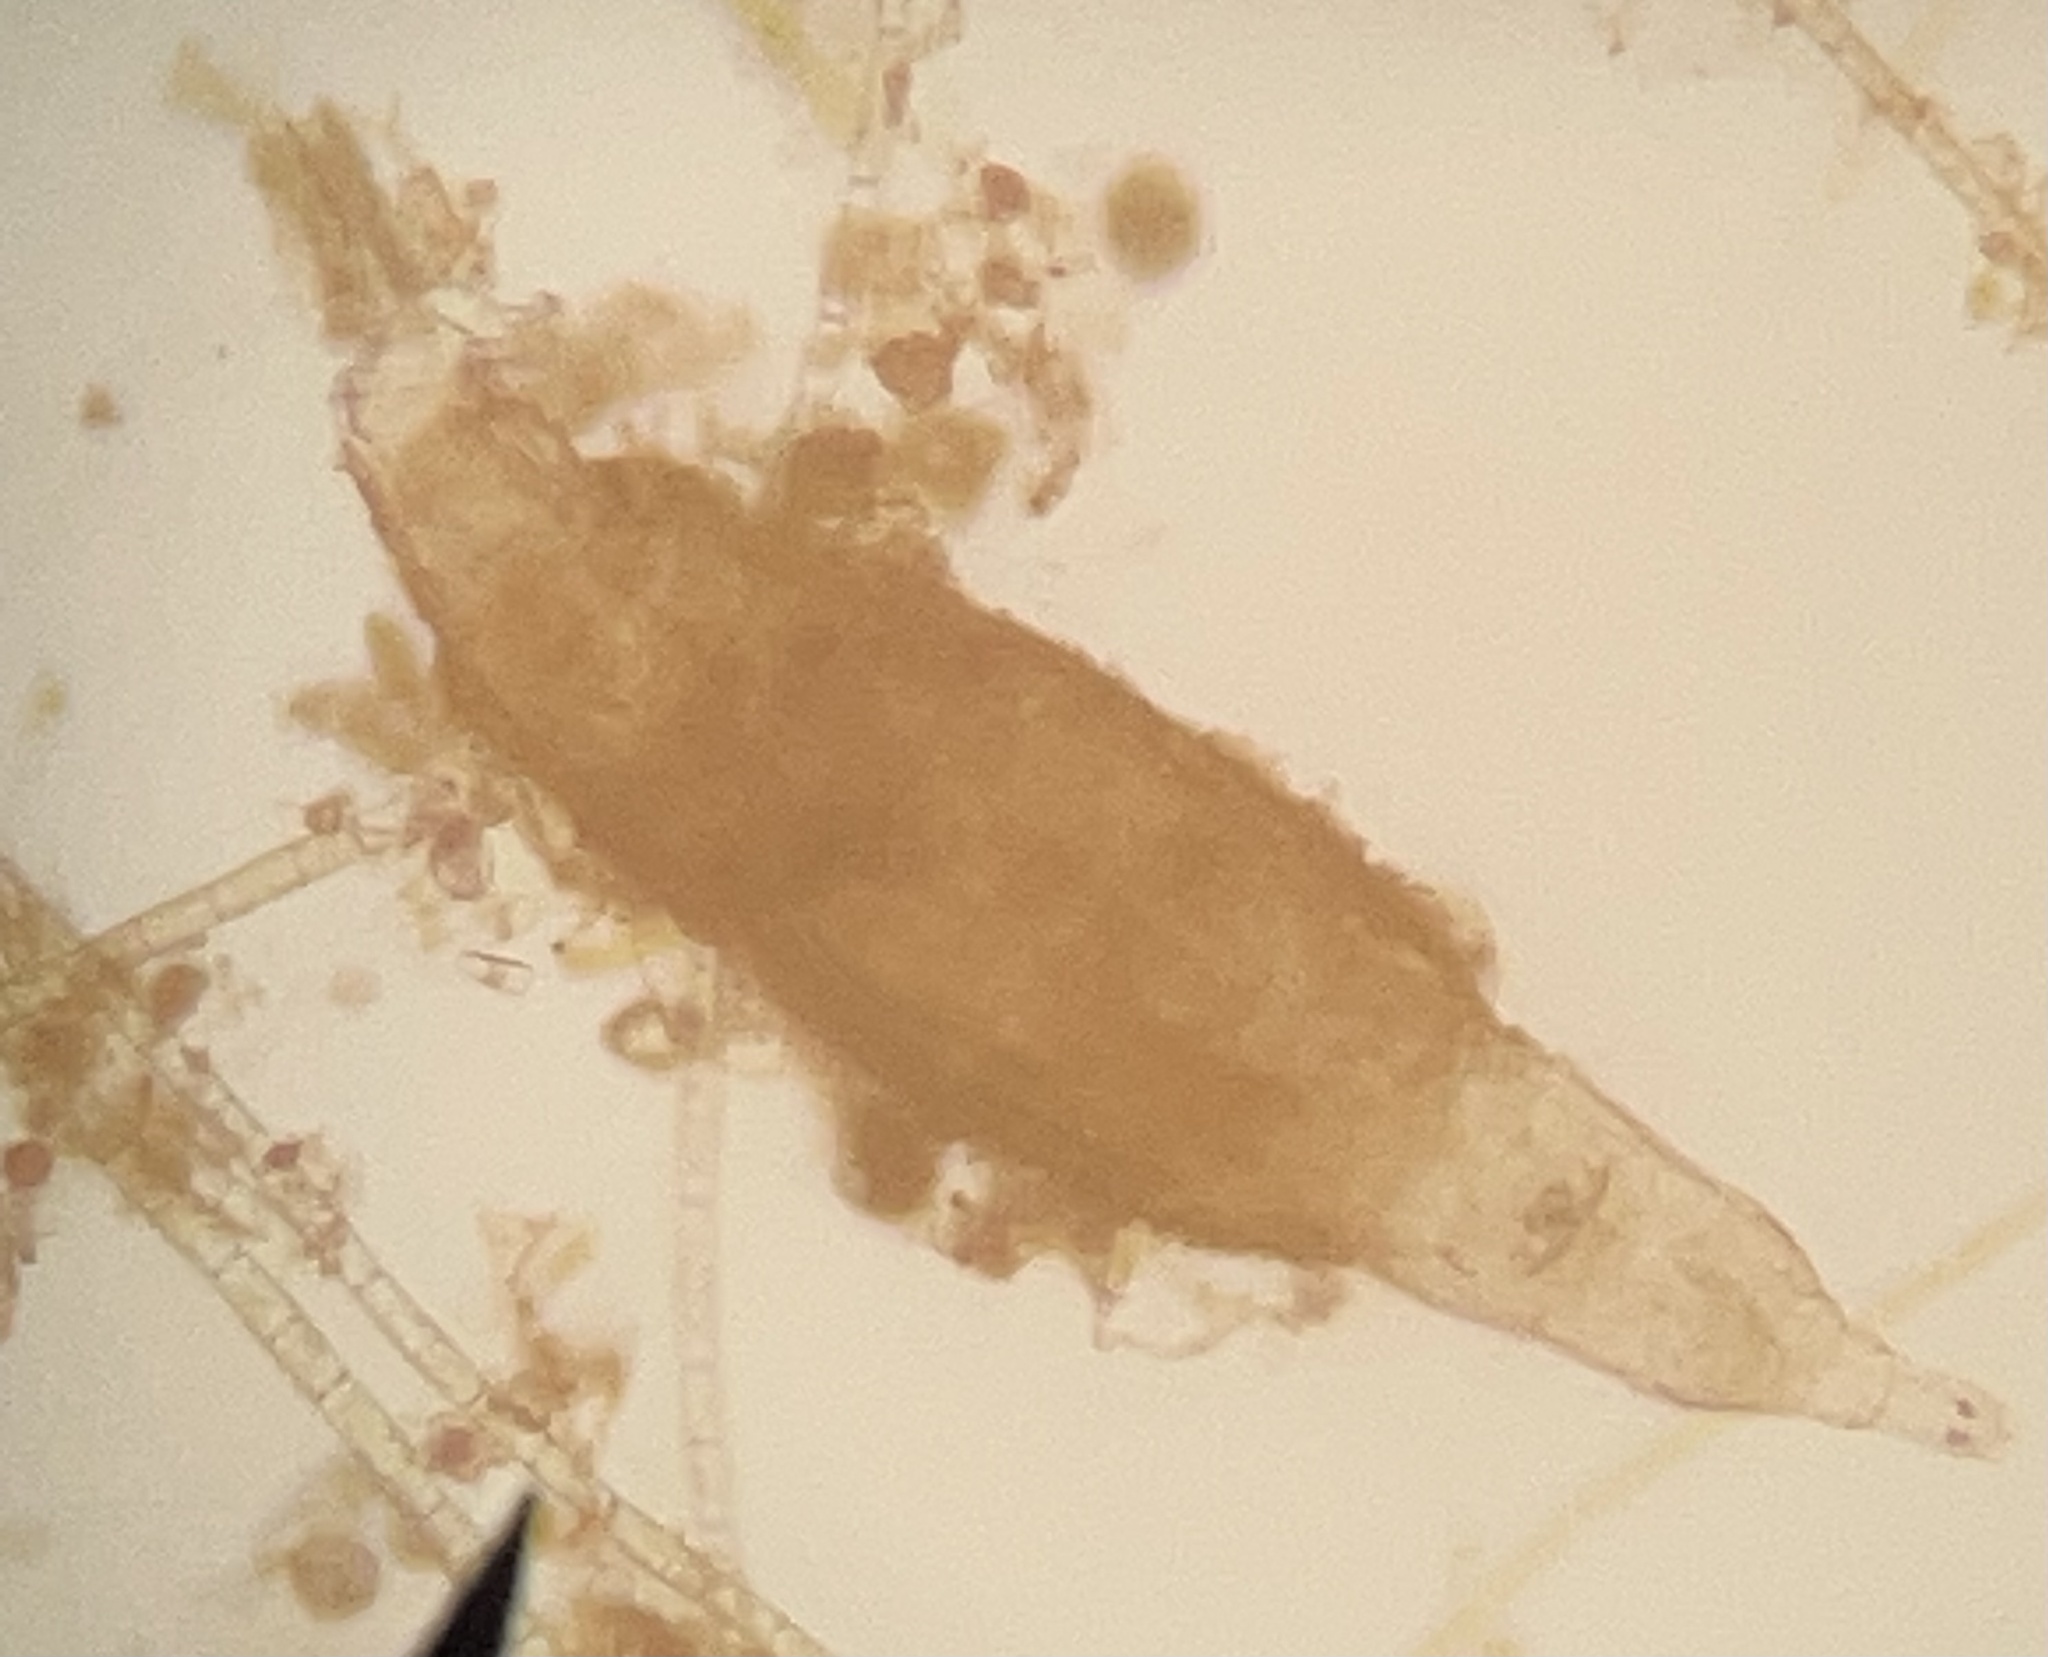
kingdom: Animalia
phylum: Rotifera
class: Eurotatoria
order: Bdelloidea
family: Philodinidae
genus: Rotaria
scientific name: Rotaria tardigrada
